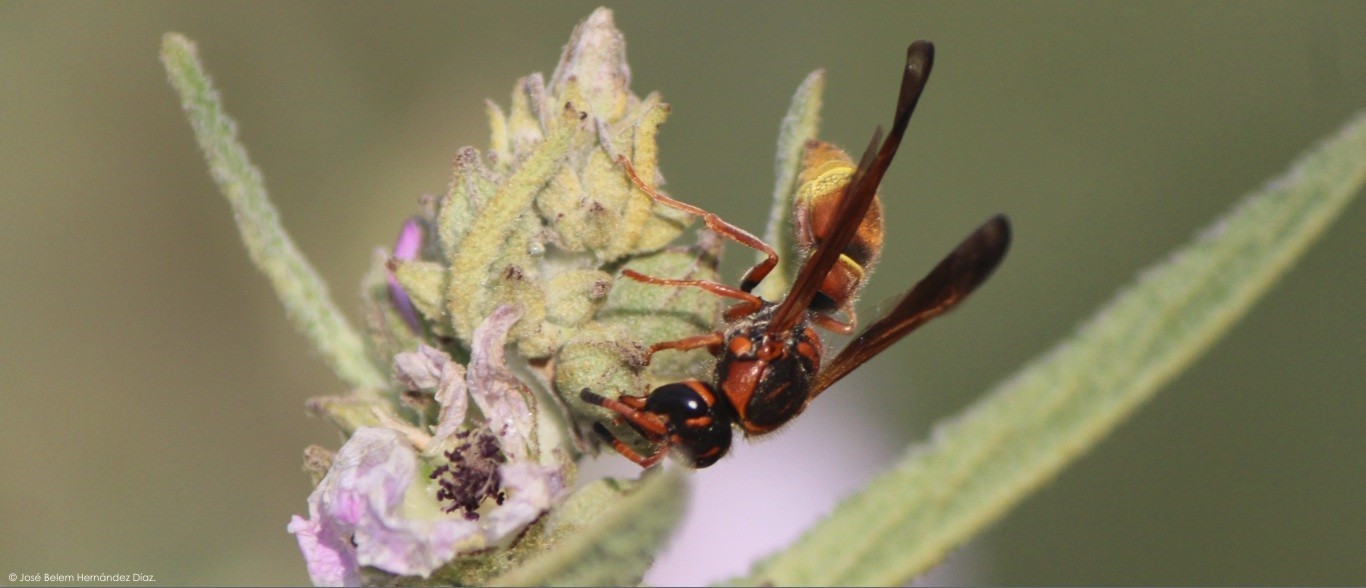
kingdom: Animalia
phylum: Arthropoda
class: Insecta
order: Hymenoptera
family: Vespidae
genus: Ancistrocerus
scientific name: Ancistrocerus tuberculocephalus
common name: Vespid wasp
